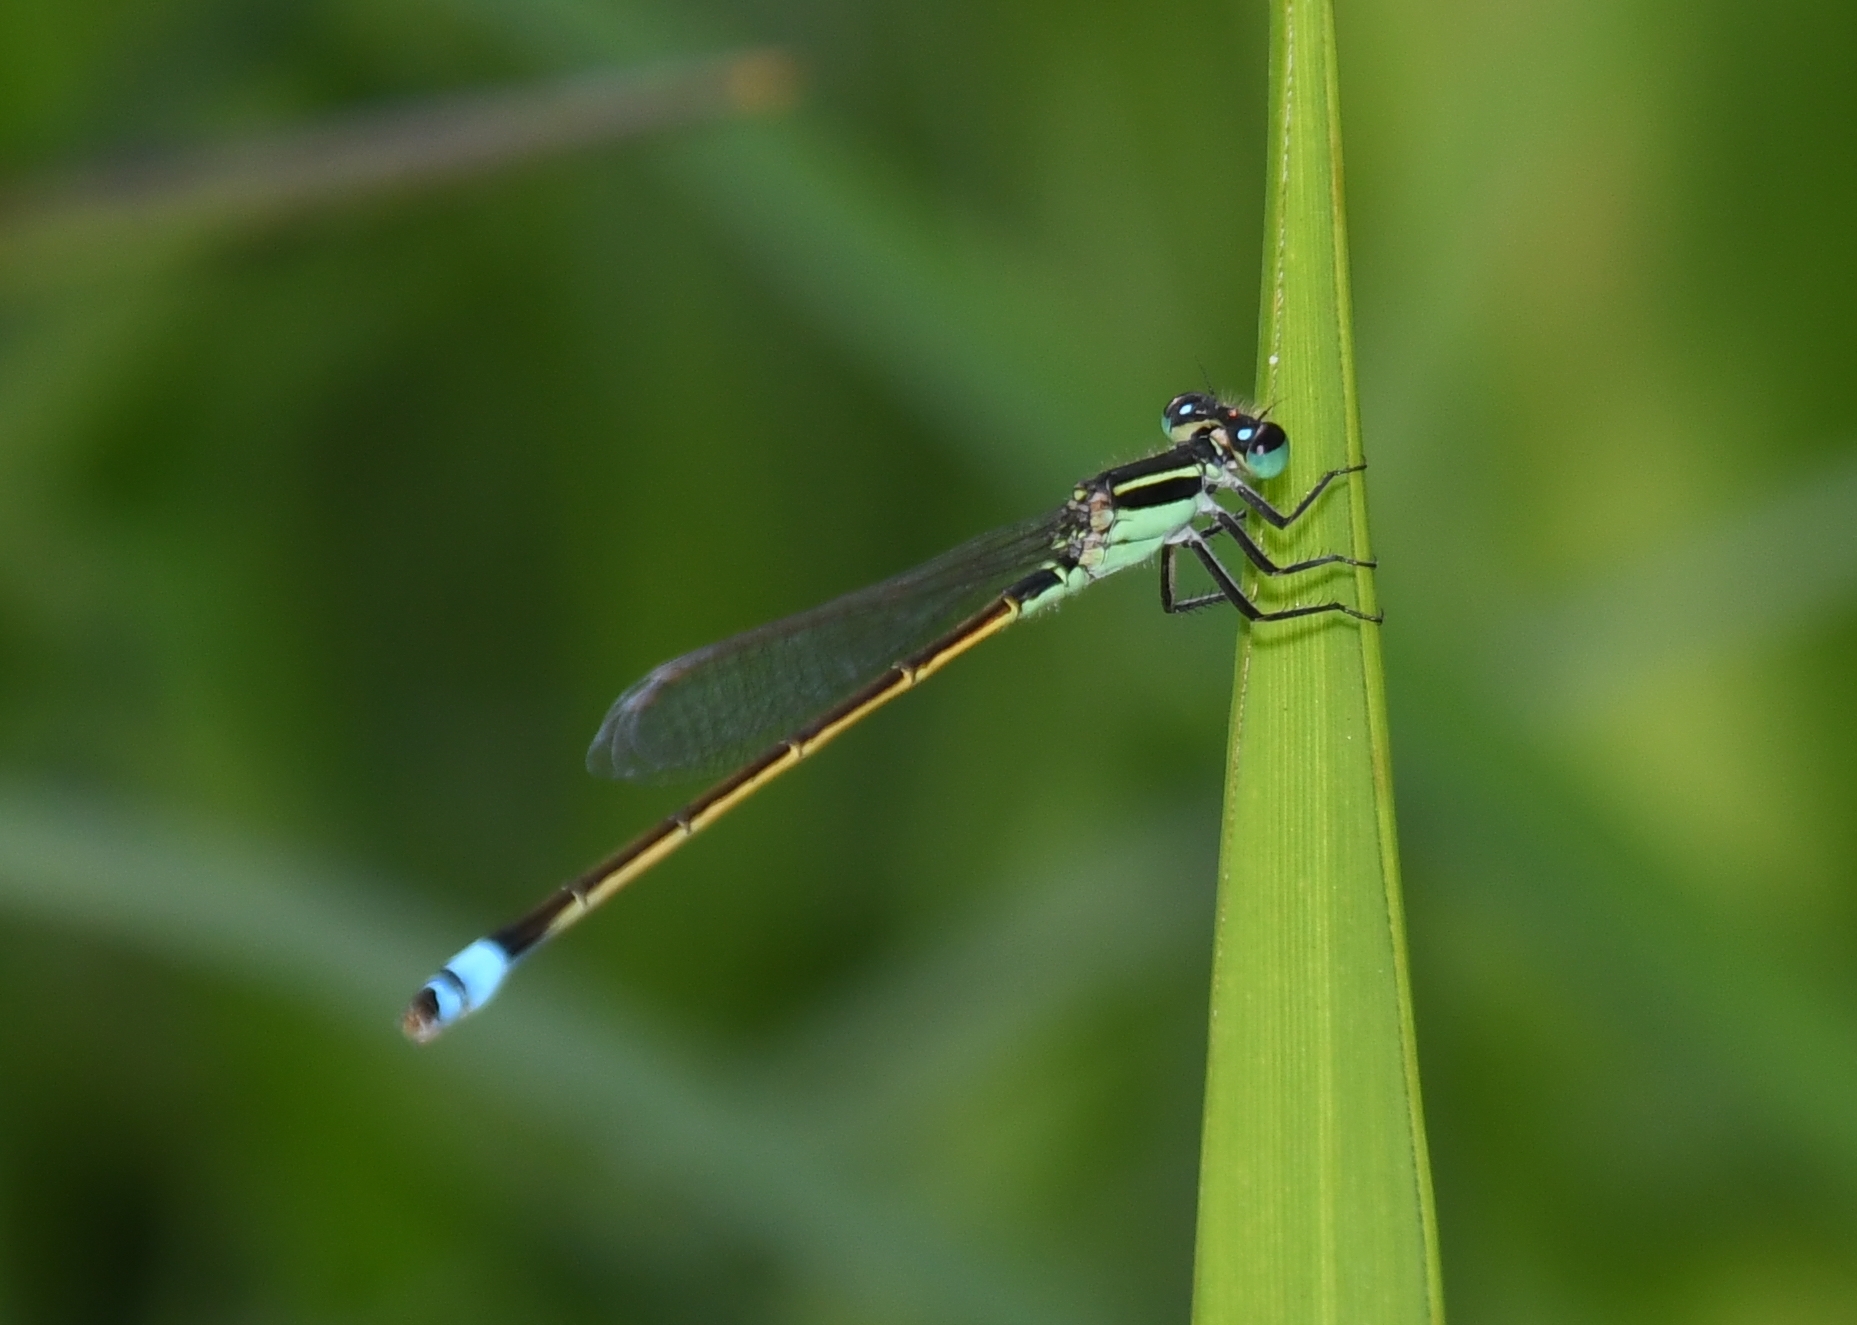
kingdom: Animalia
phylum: Arthropoda
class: Insecta
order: Odonata
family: Coenagrionidae
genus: Ischnura
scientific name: Ischnura ramburii
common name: Rambur's forktail
